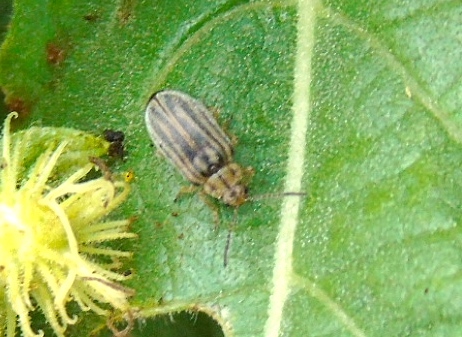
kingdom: Animalia
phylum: Arthropoda
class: Insecta
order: Coleoptera
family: Chrysomelidae
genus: Ophraella
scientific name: Ophraella
